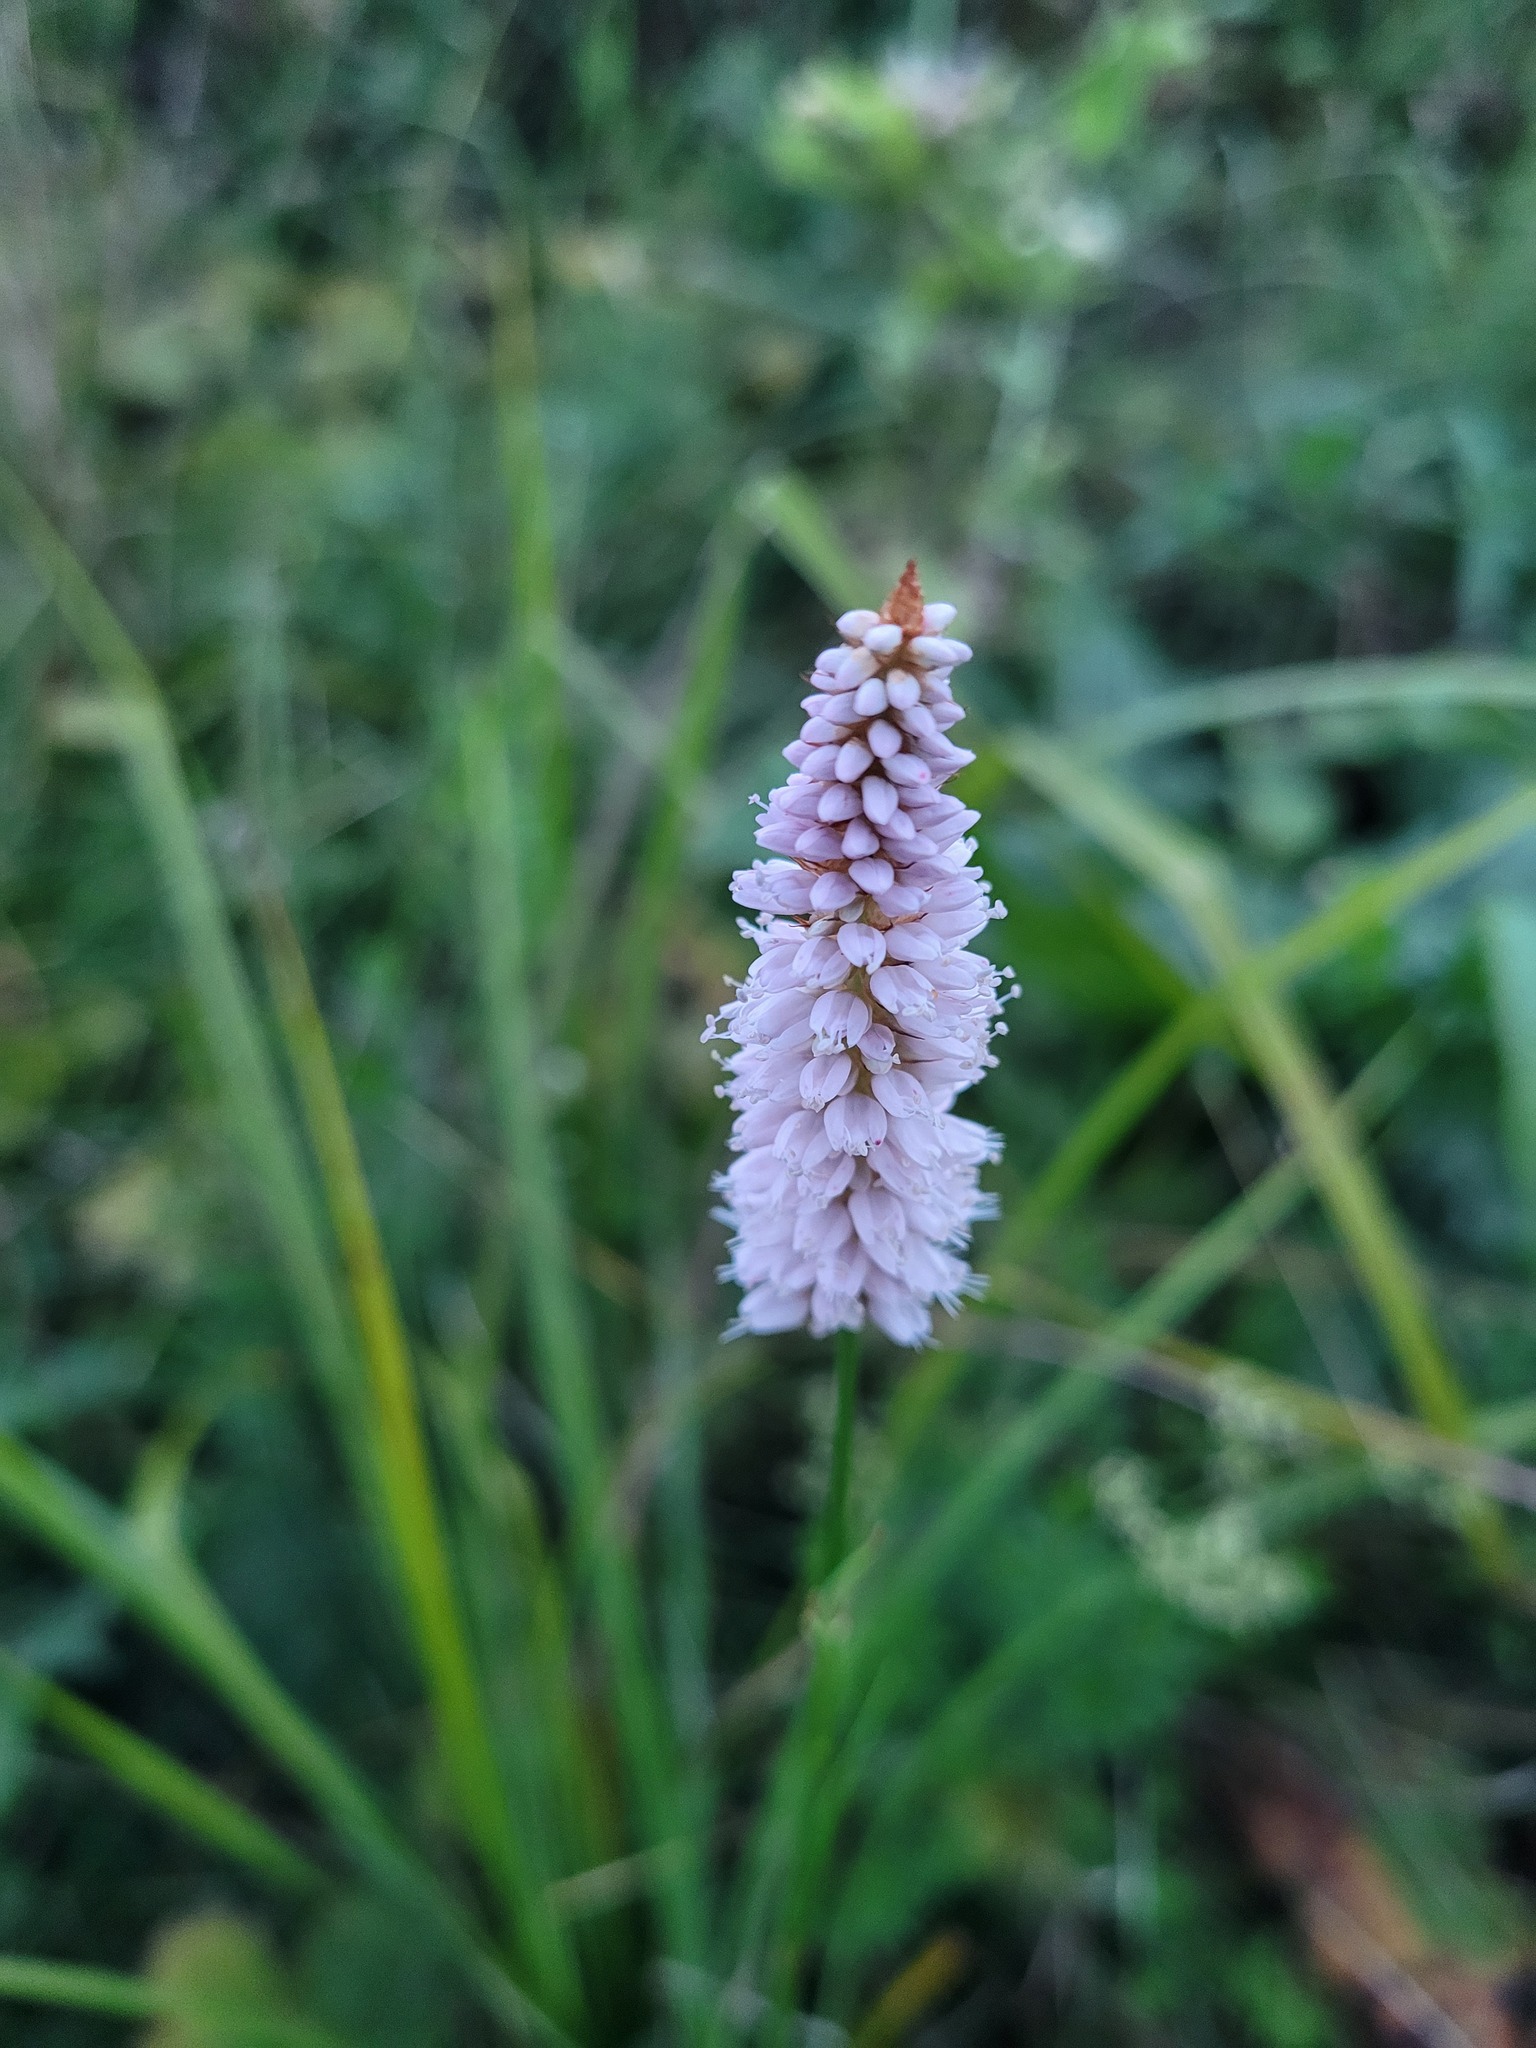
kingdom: Plantae
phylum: Tracheophyta
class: Magnoliopsida
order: Caryophyllales
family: Polygonaceae
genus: Bistorta
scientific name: Bistorta officinalis
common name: Common bistort
